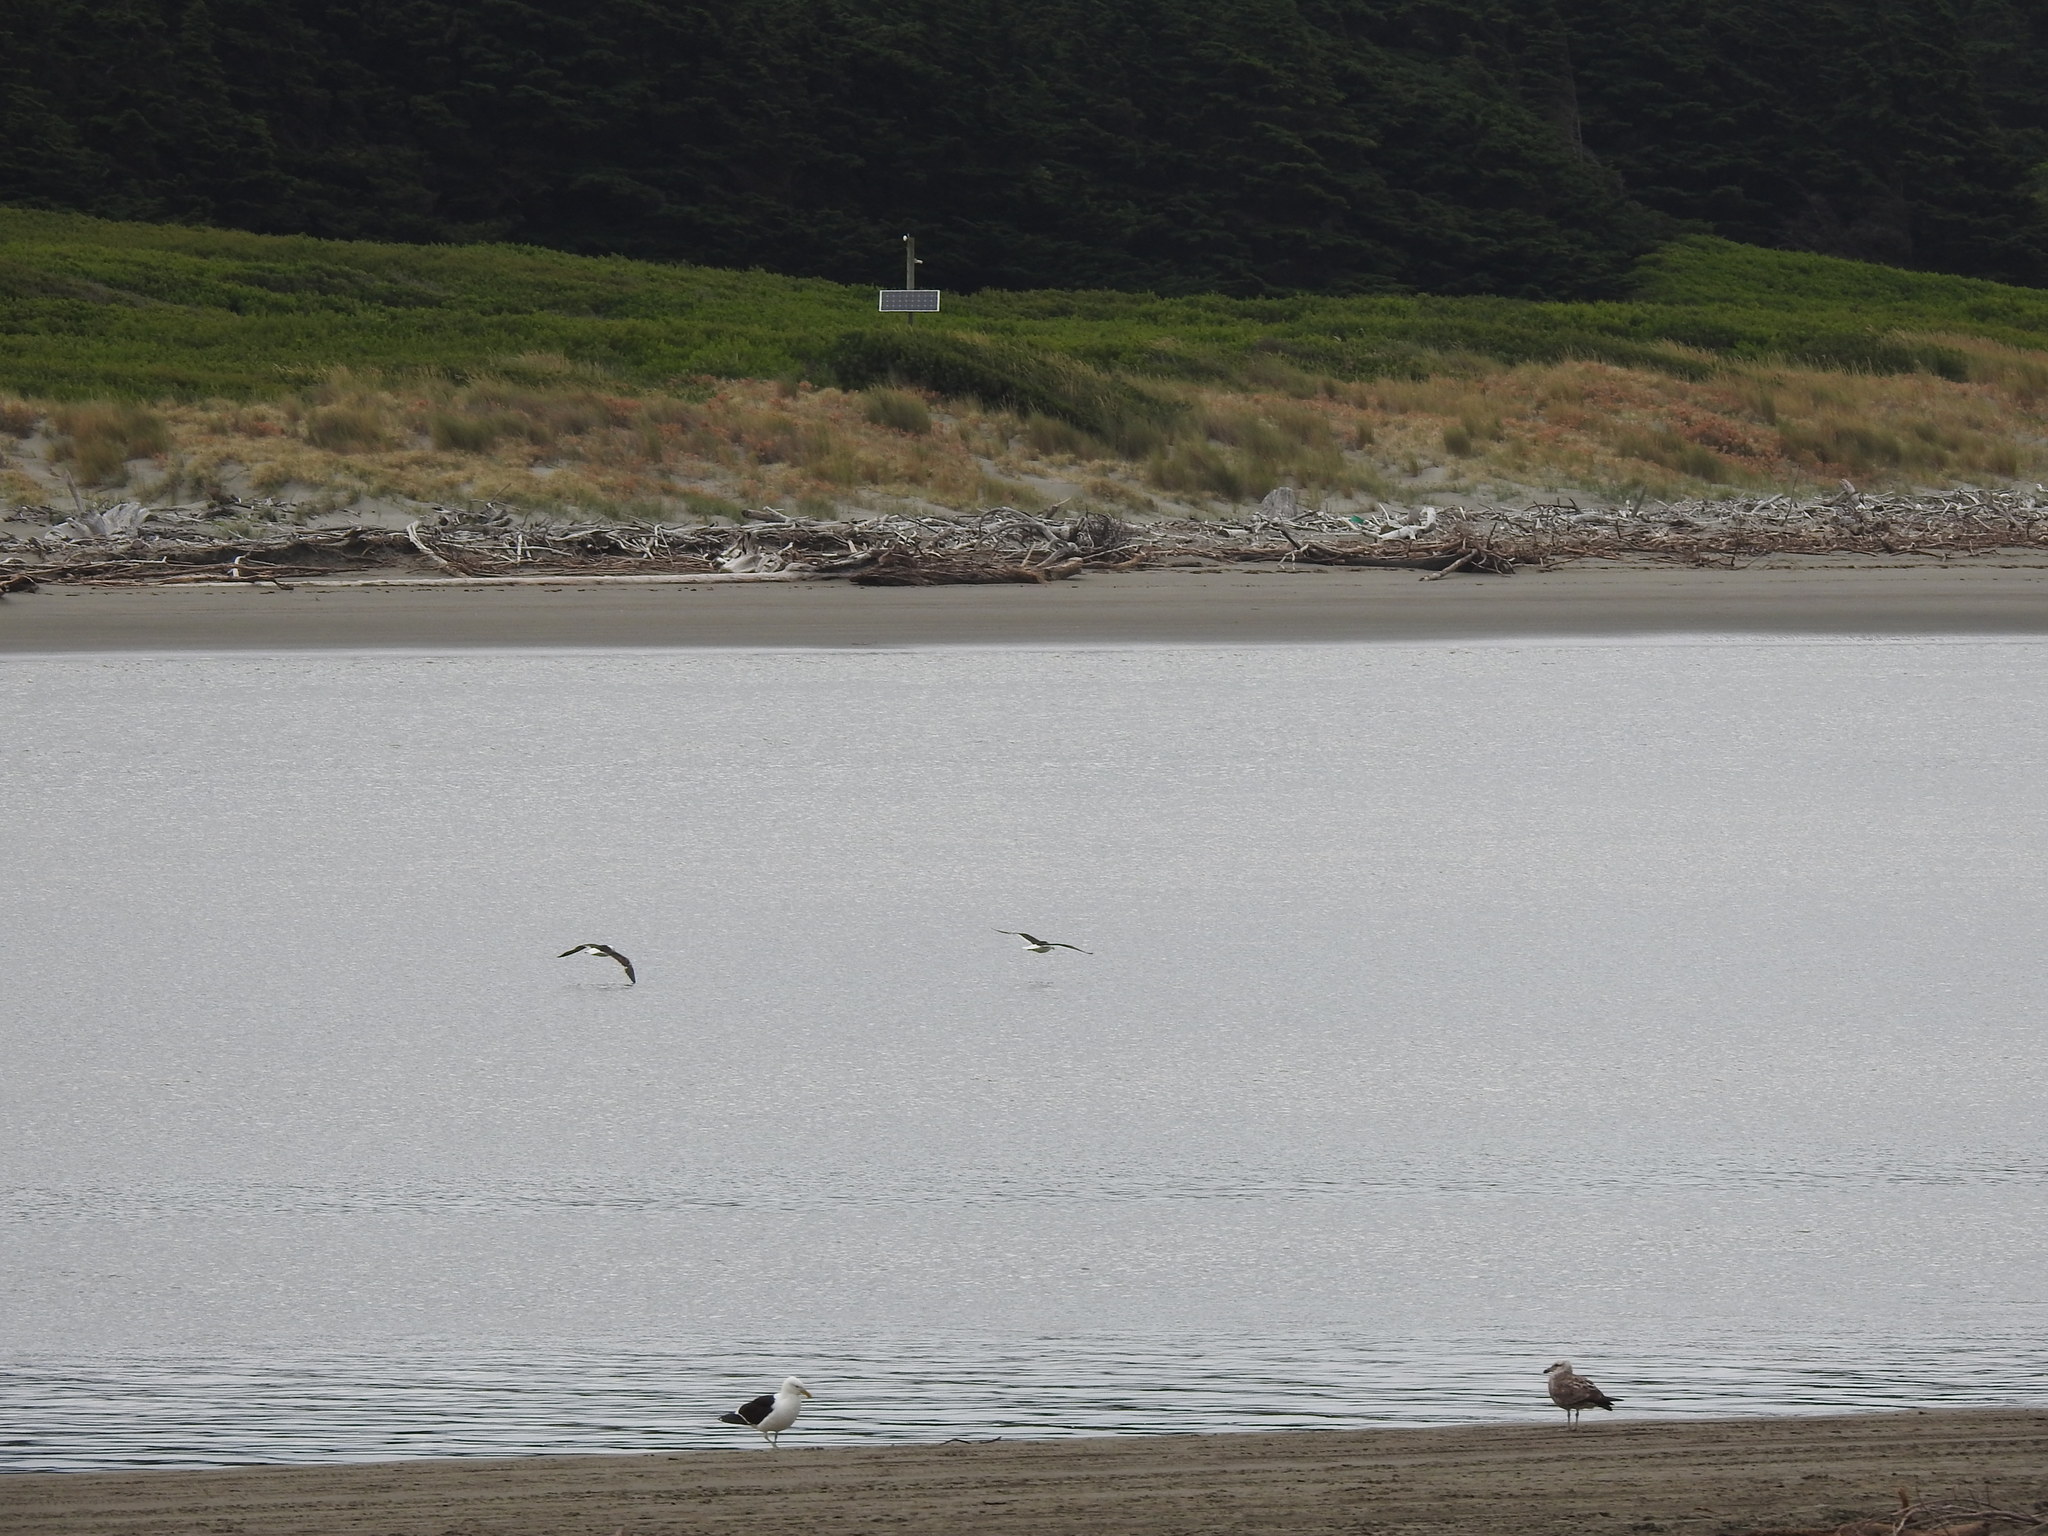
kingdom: Animalia
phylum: Chordata
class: Aves
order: Charadriiformes
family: Laridae
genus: Larus
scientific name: Larus dominicanus
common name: Kelp gull
